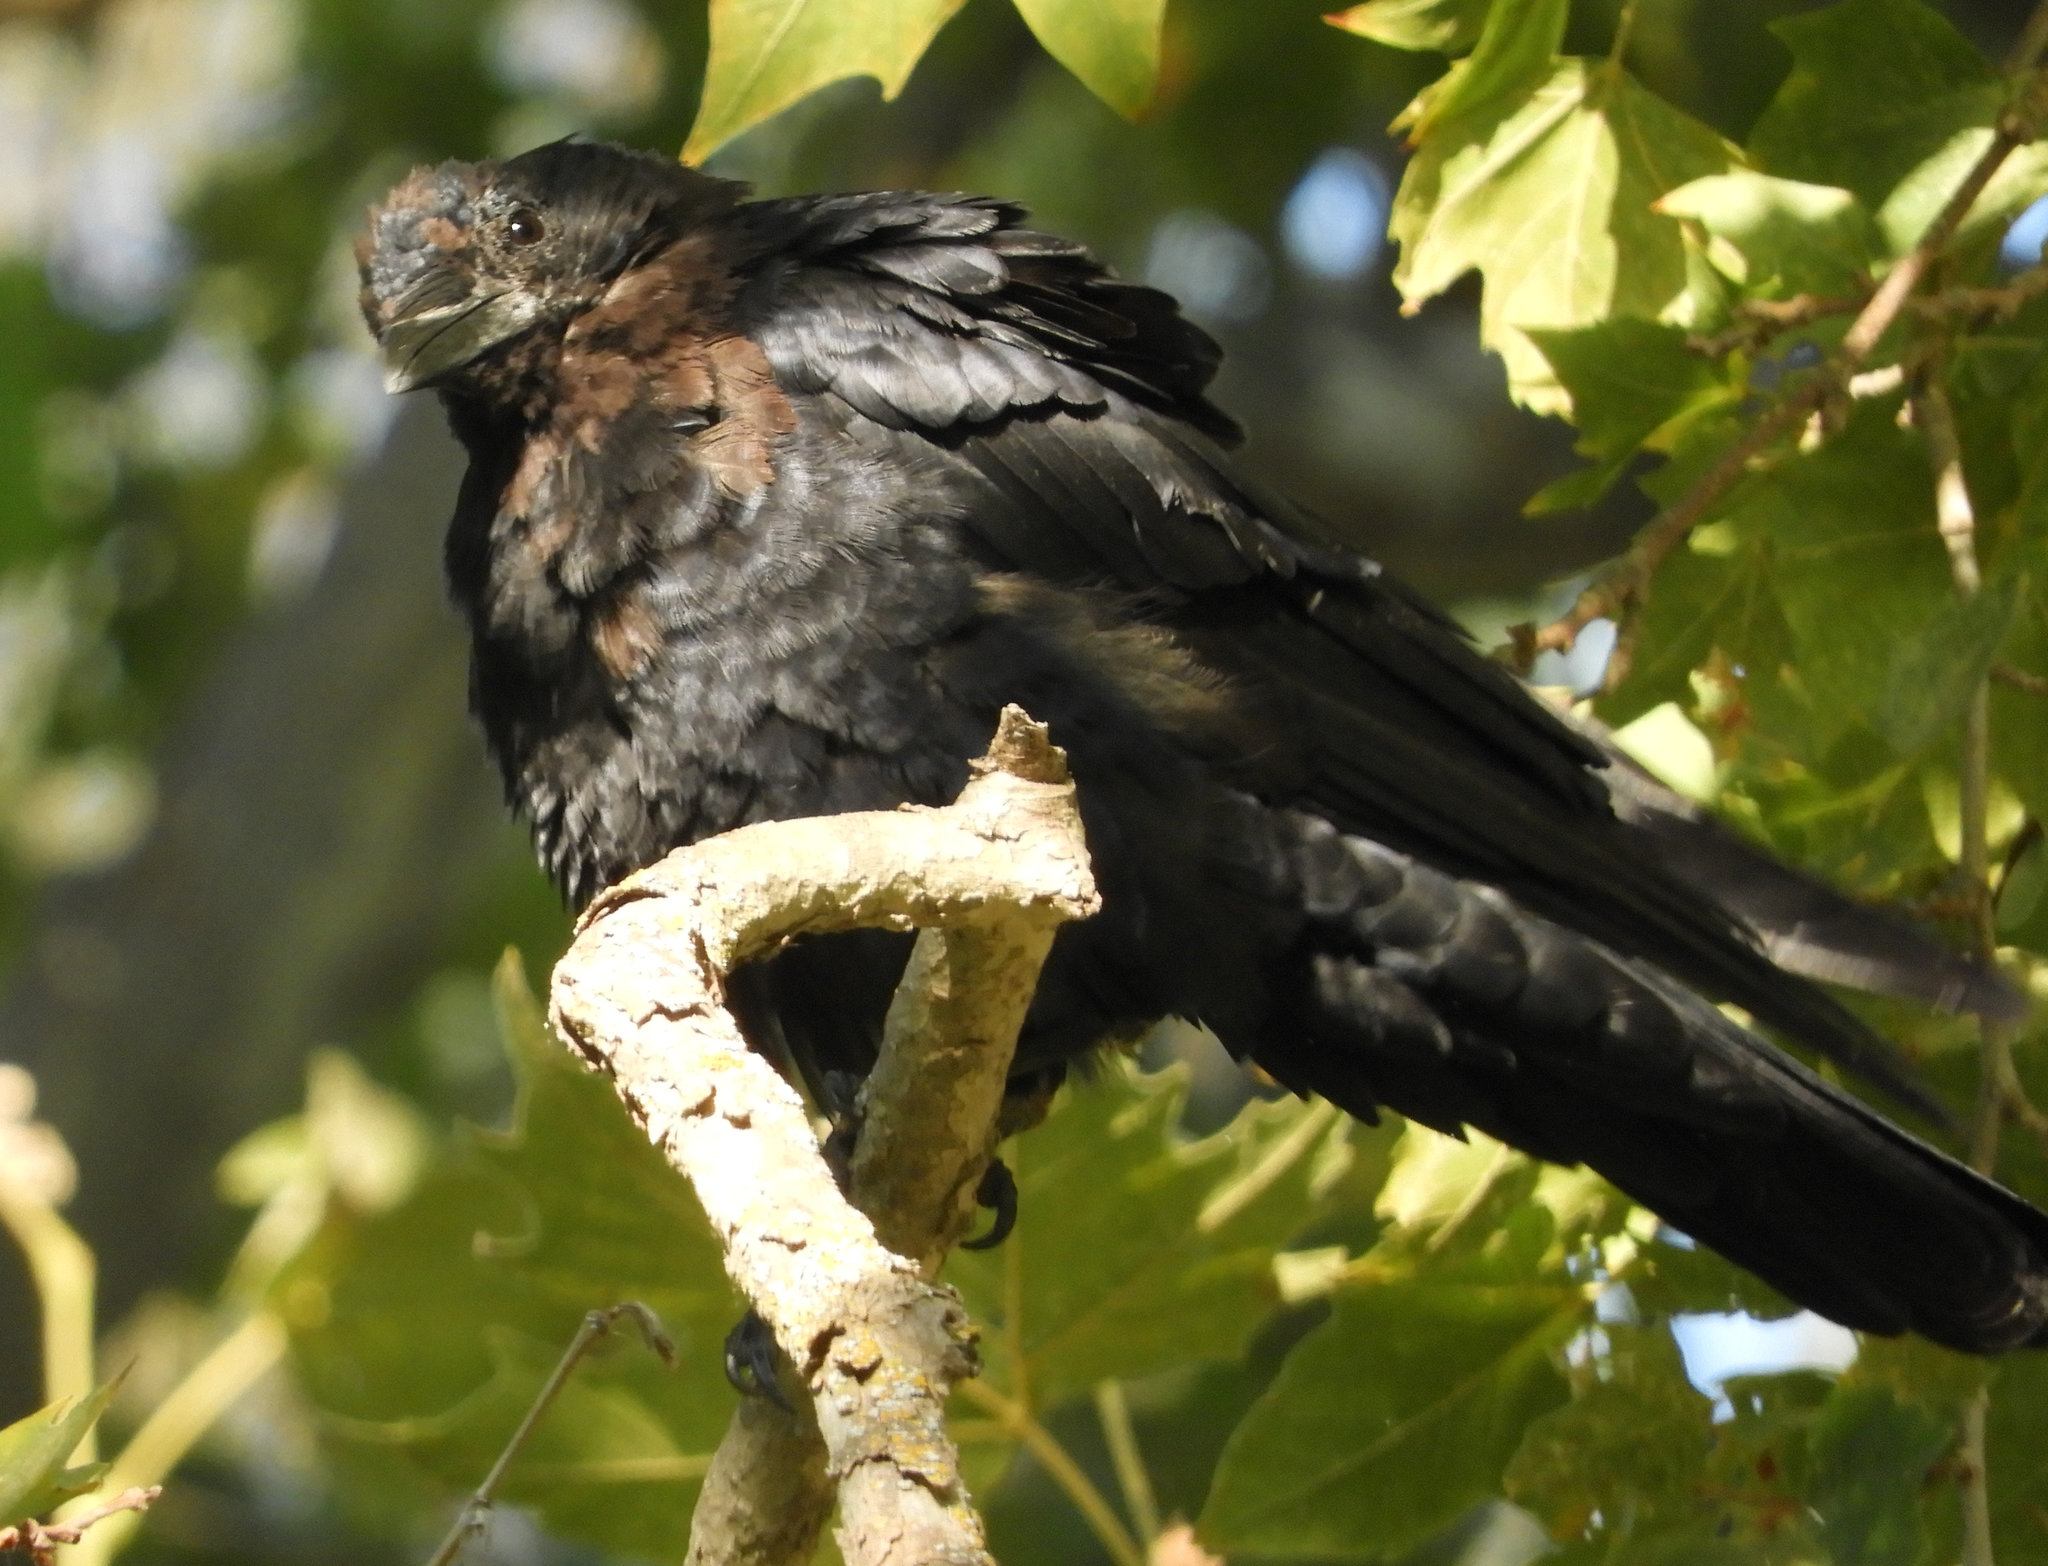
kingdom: Animalia
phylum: Chordata
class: Aves
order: Passeriformes
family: Corvidae
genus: Corvus
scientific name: Corvus brachyrhynchos
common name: American crow
